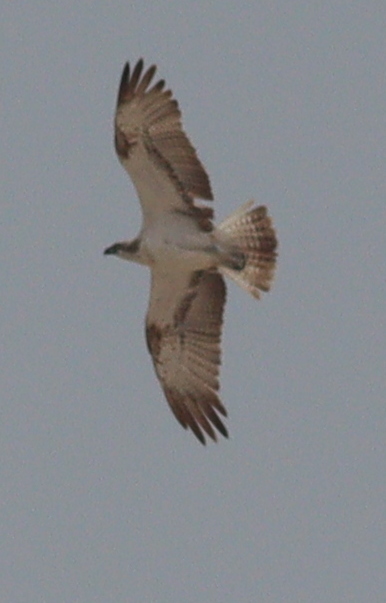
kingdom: Animalia
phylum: Chordata
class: Aves
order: Accipitriformes
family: Pandionidae
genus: Pandion
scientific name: Pandion haliaetus
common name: Osprey
